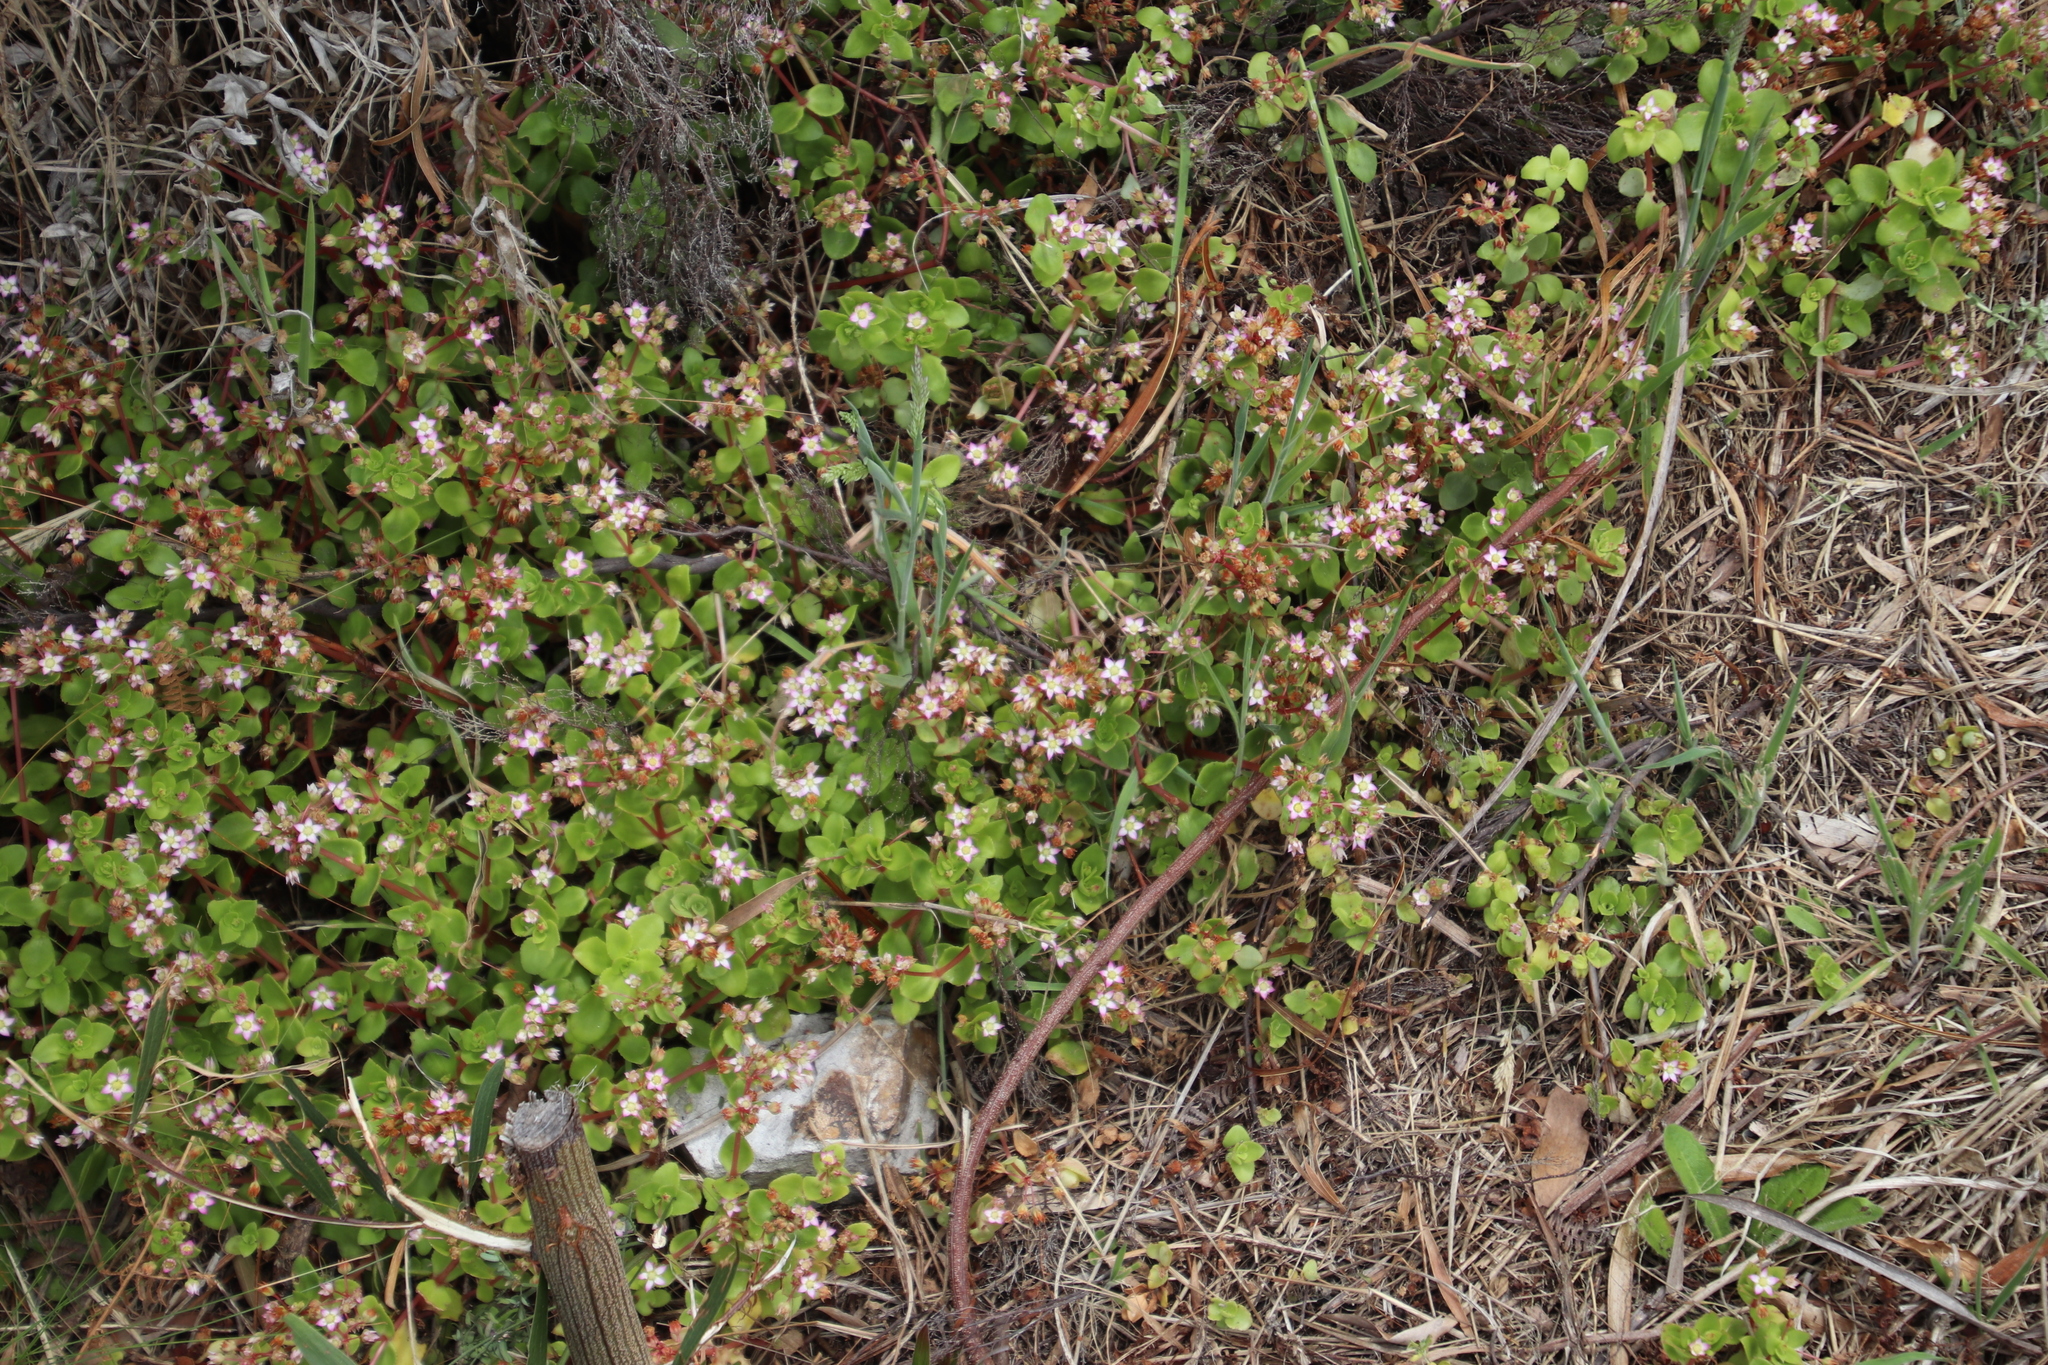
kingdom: Plantae
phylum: Tracheophyta
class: Magnoliopsida
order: Saxifragales
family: Crassulaceae
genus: Crassula
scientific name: Crassula pellucida
